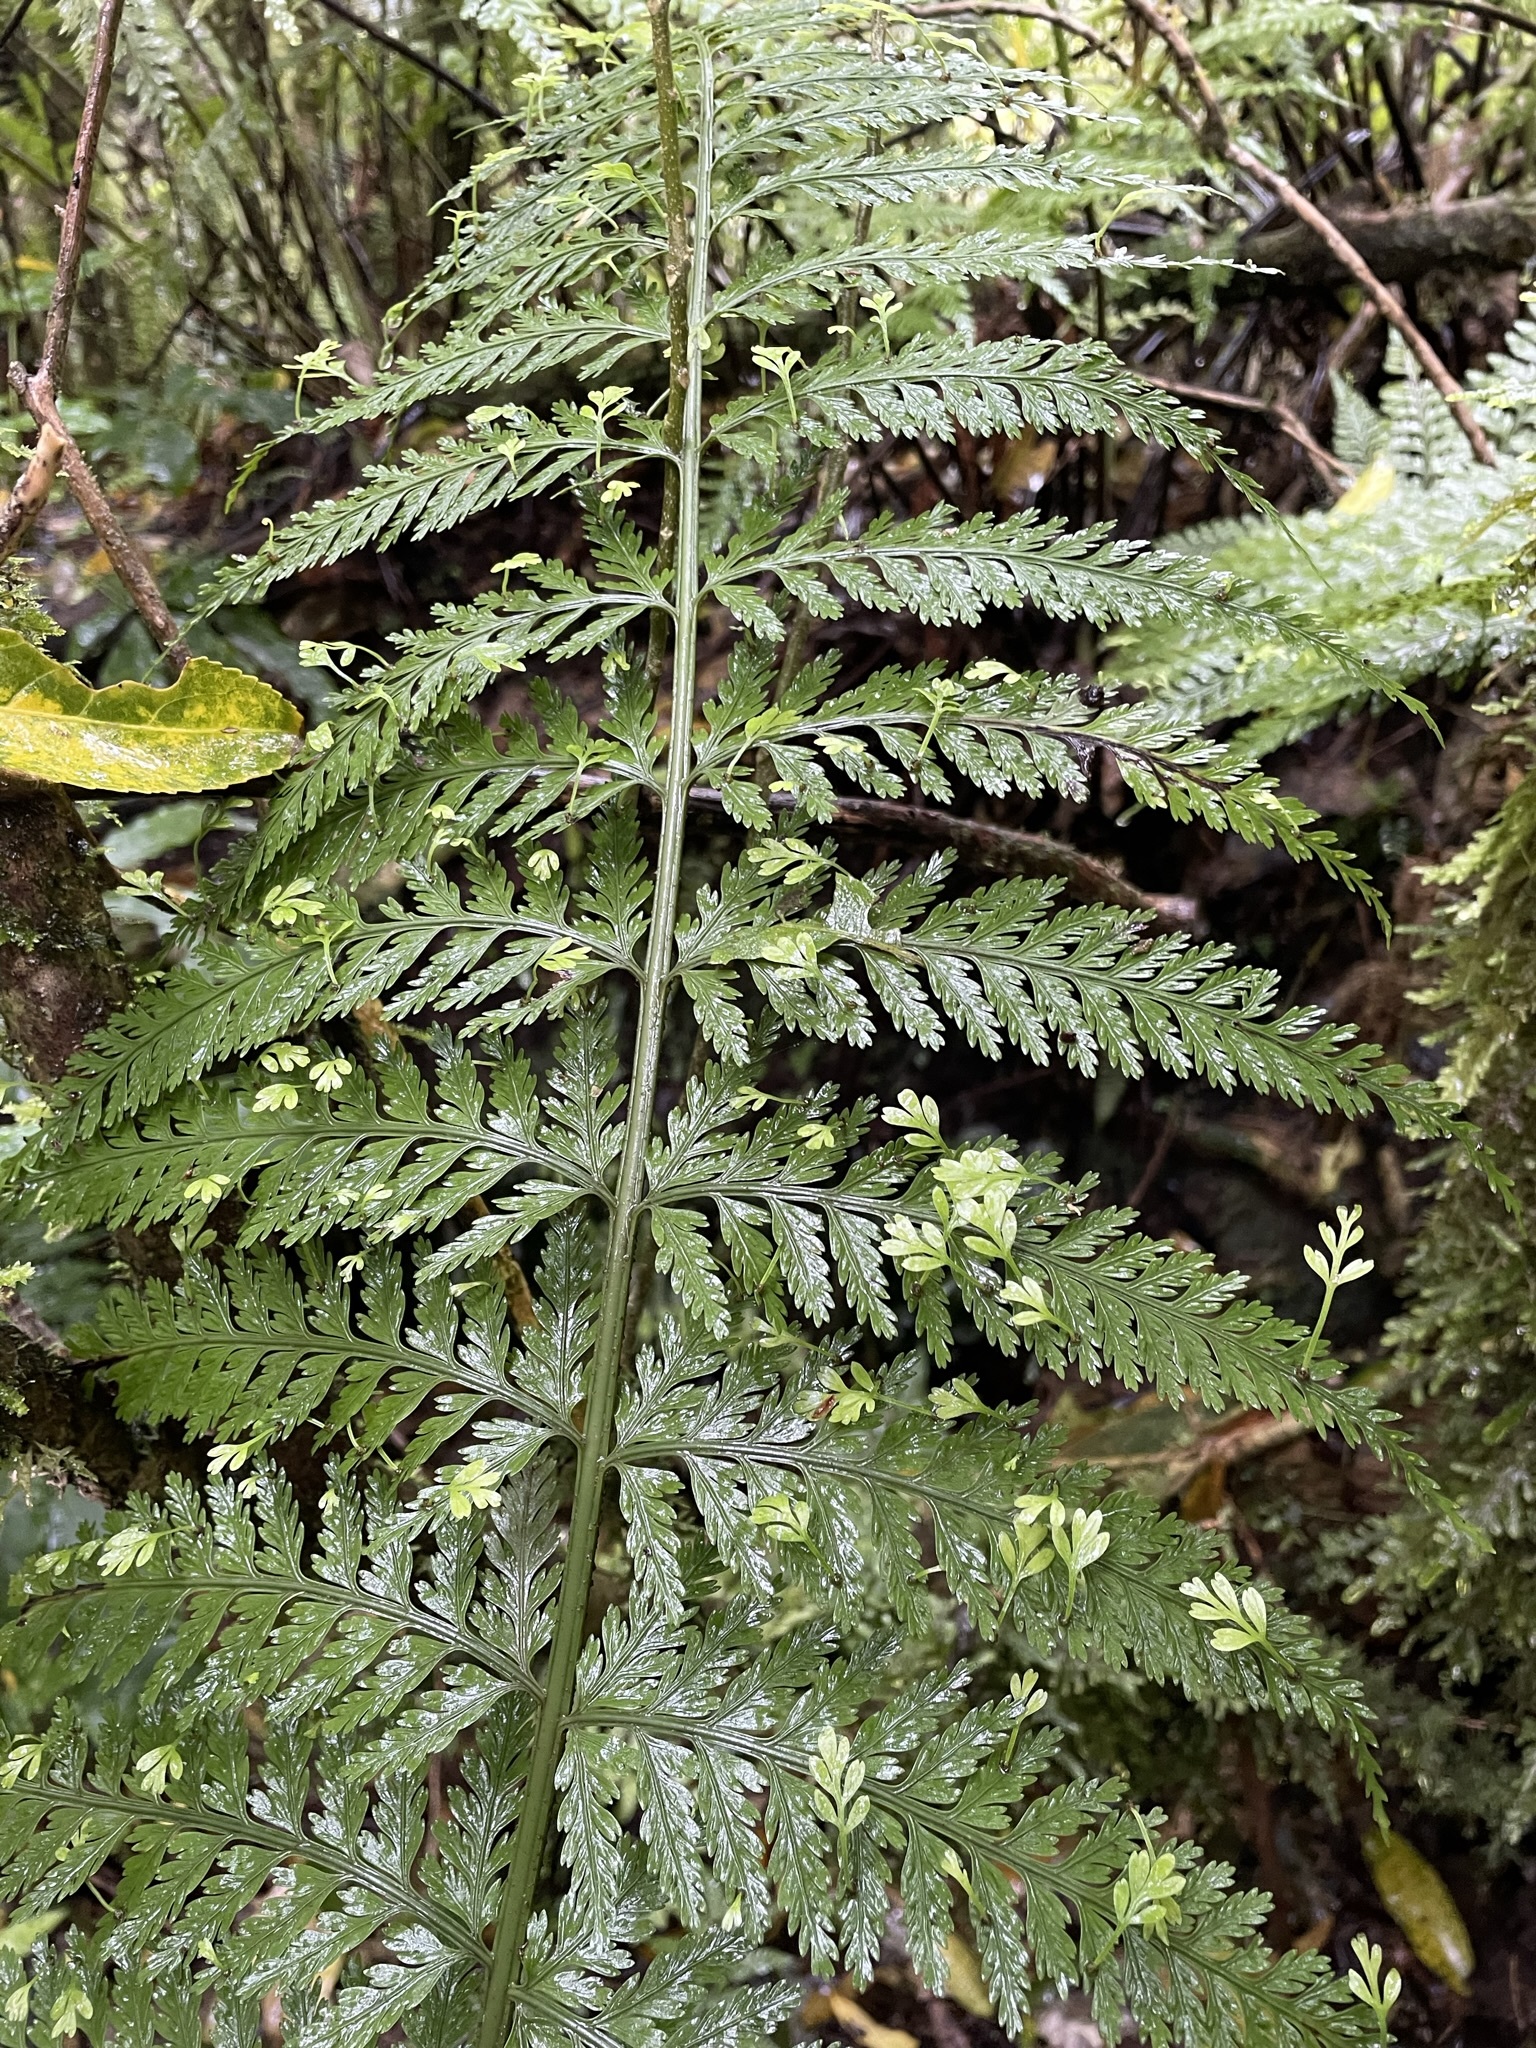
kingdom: Plantae
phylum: Tracheophyta
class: Polypodiopsida
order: Polypodiales
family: Aspleniaceae
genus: Asplenium
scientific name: Asplenium bulbiferum
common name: Mother fern
